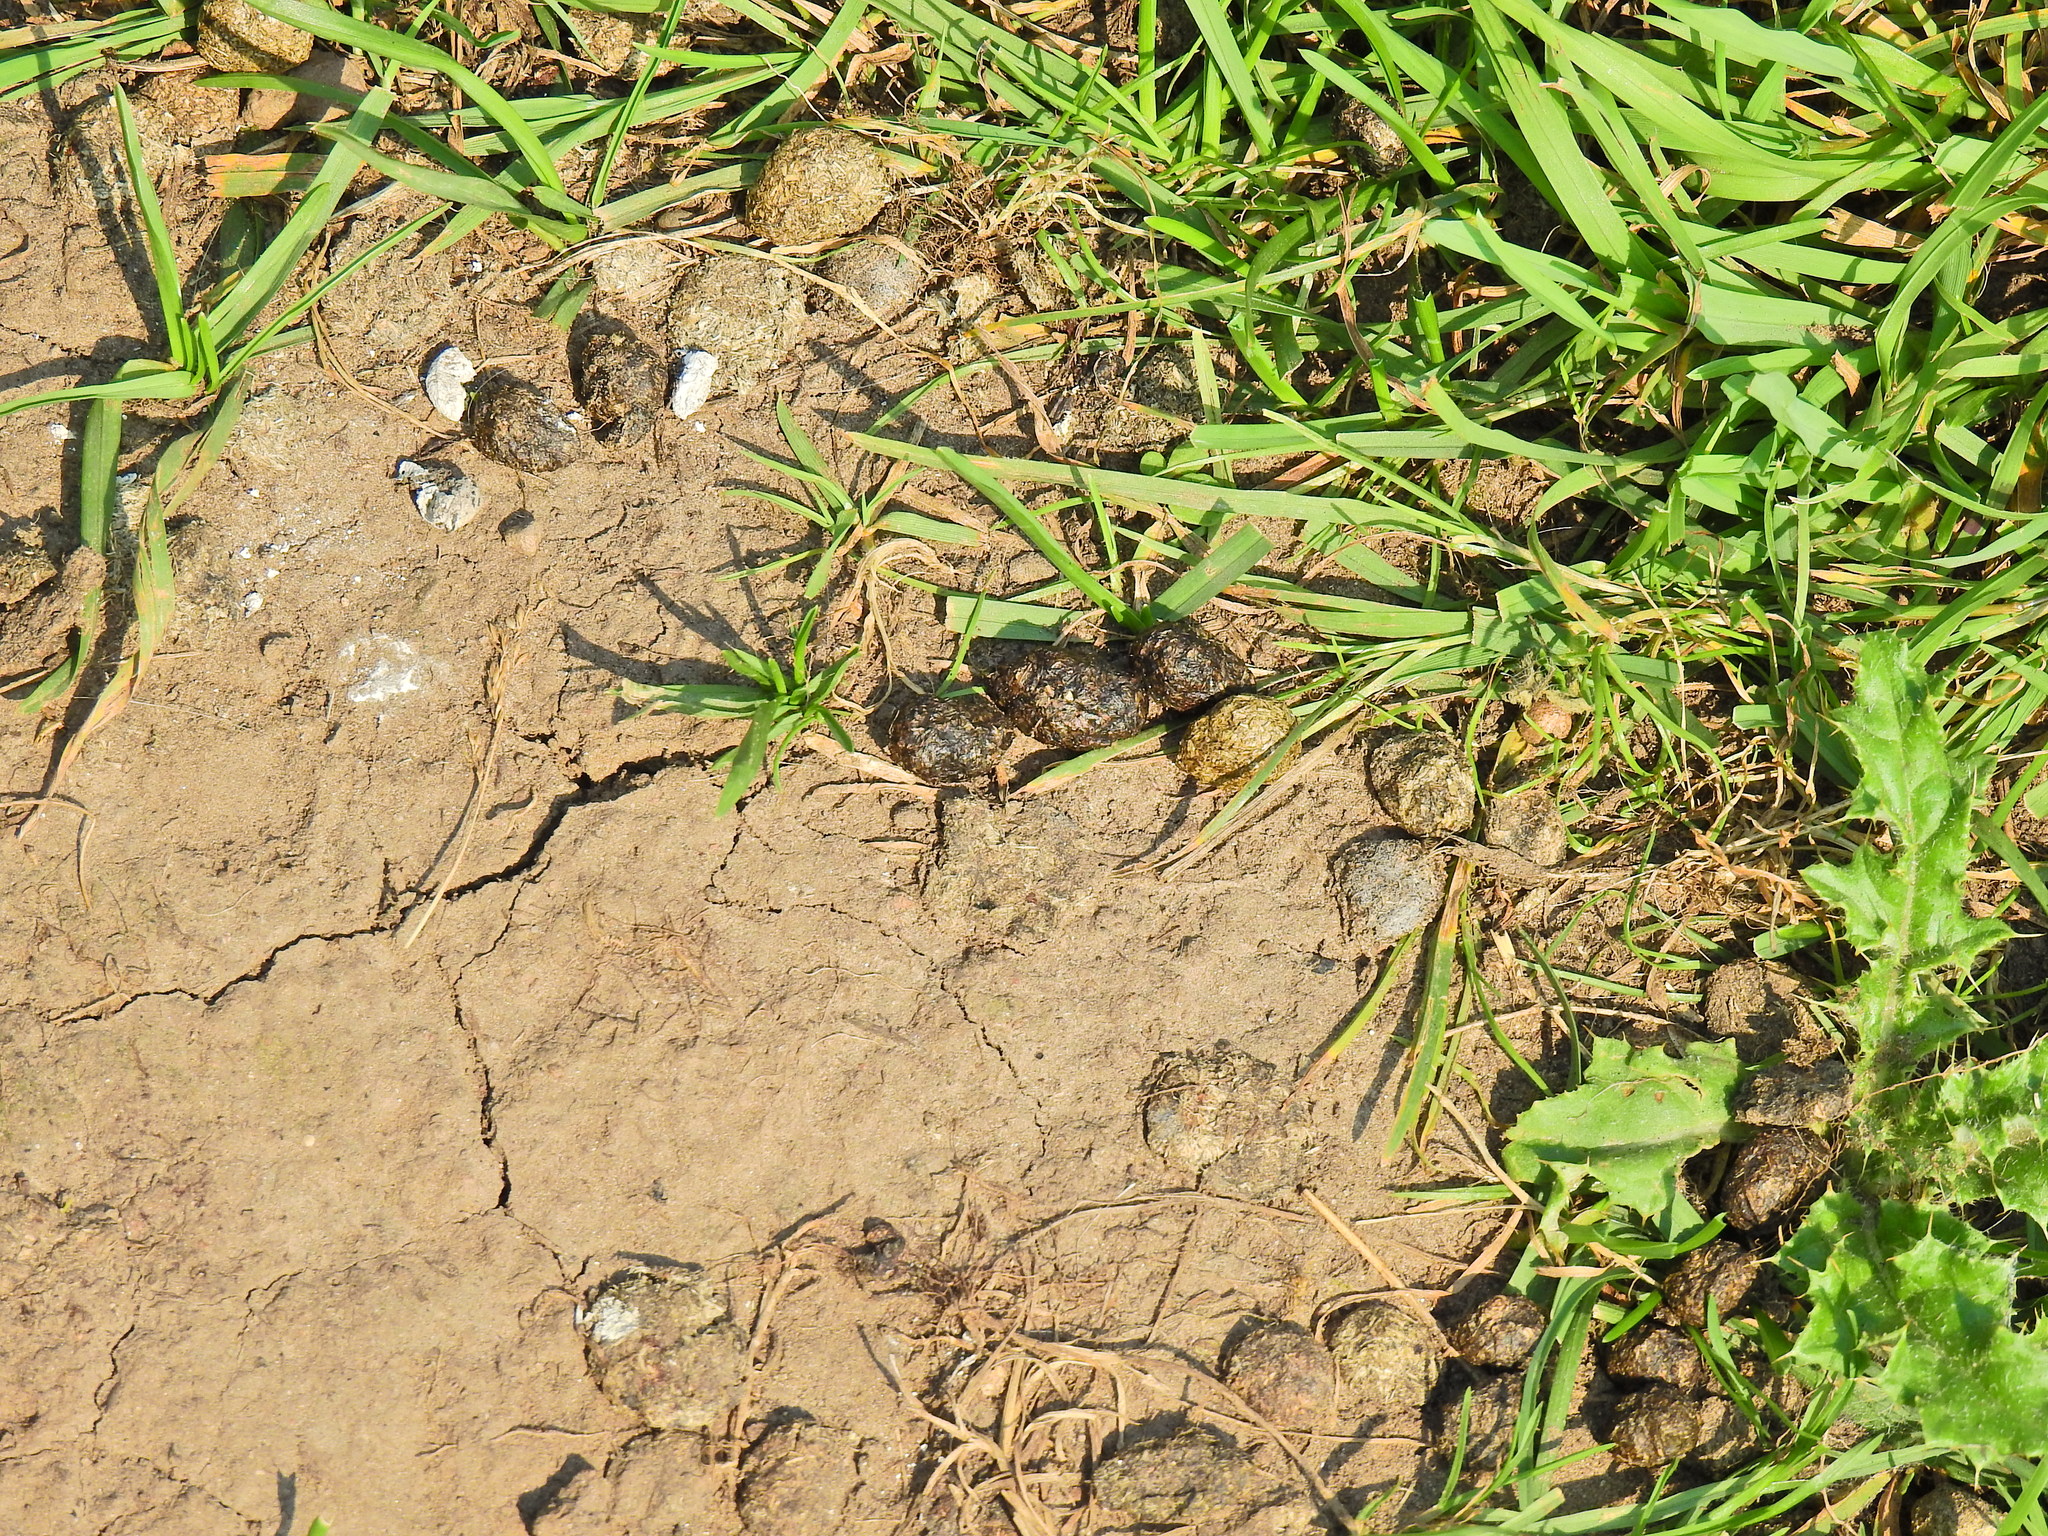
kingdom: Animalia
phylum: Chordata
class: Mammalia
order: Lagomorpha
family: Leporidae
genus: Oryctolagus
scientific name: Oryctolagus cuniculus
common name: European rabbit
